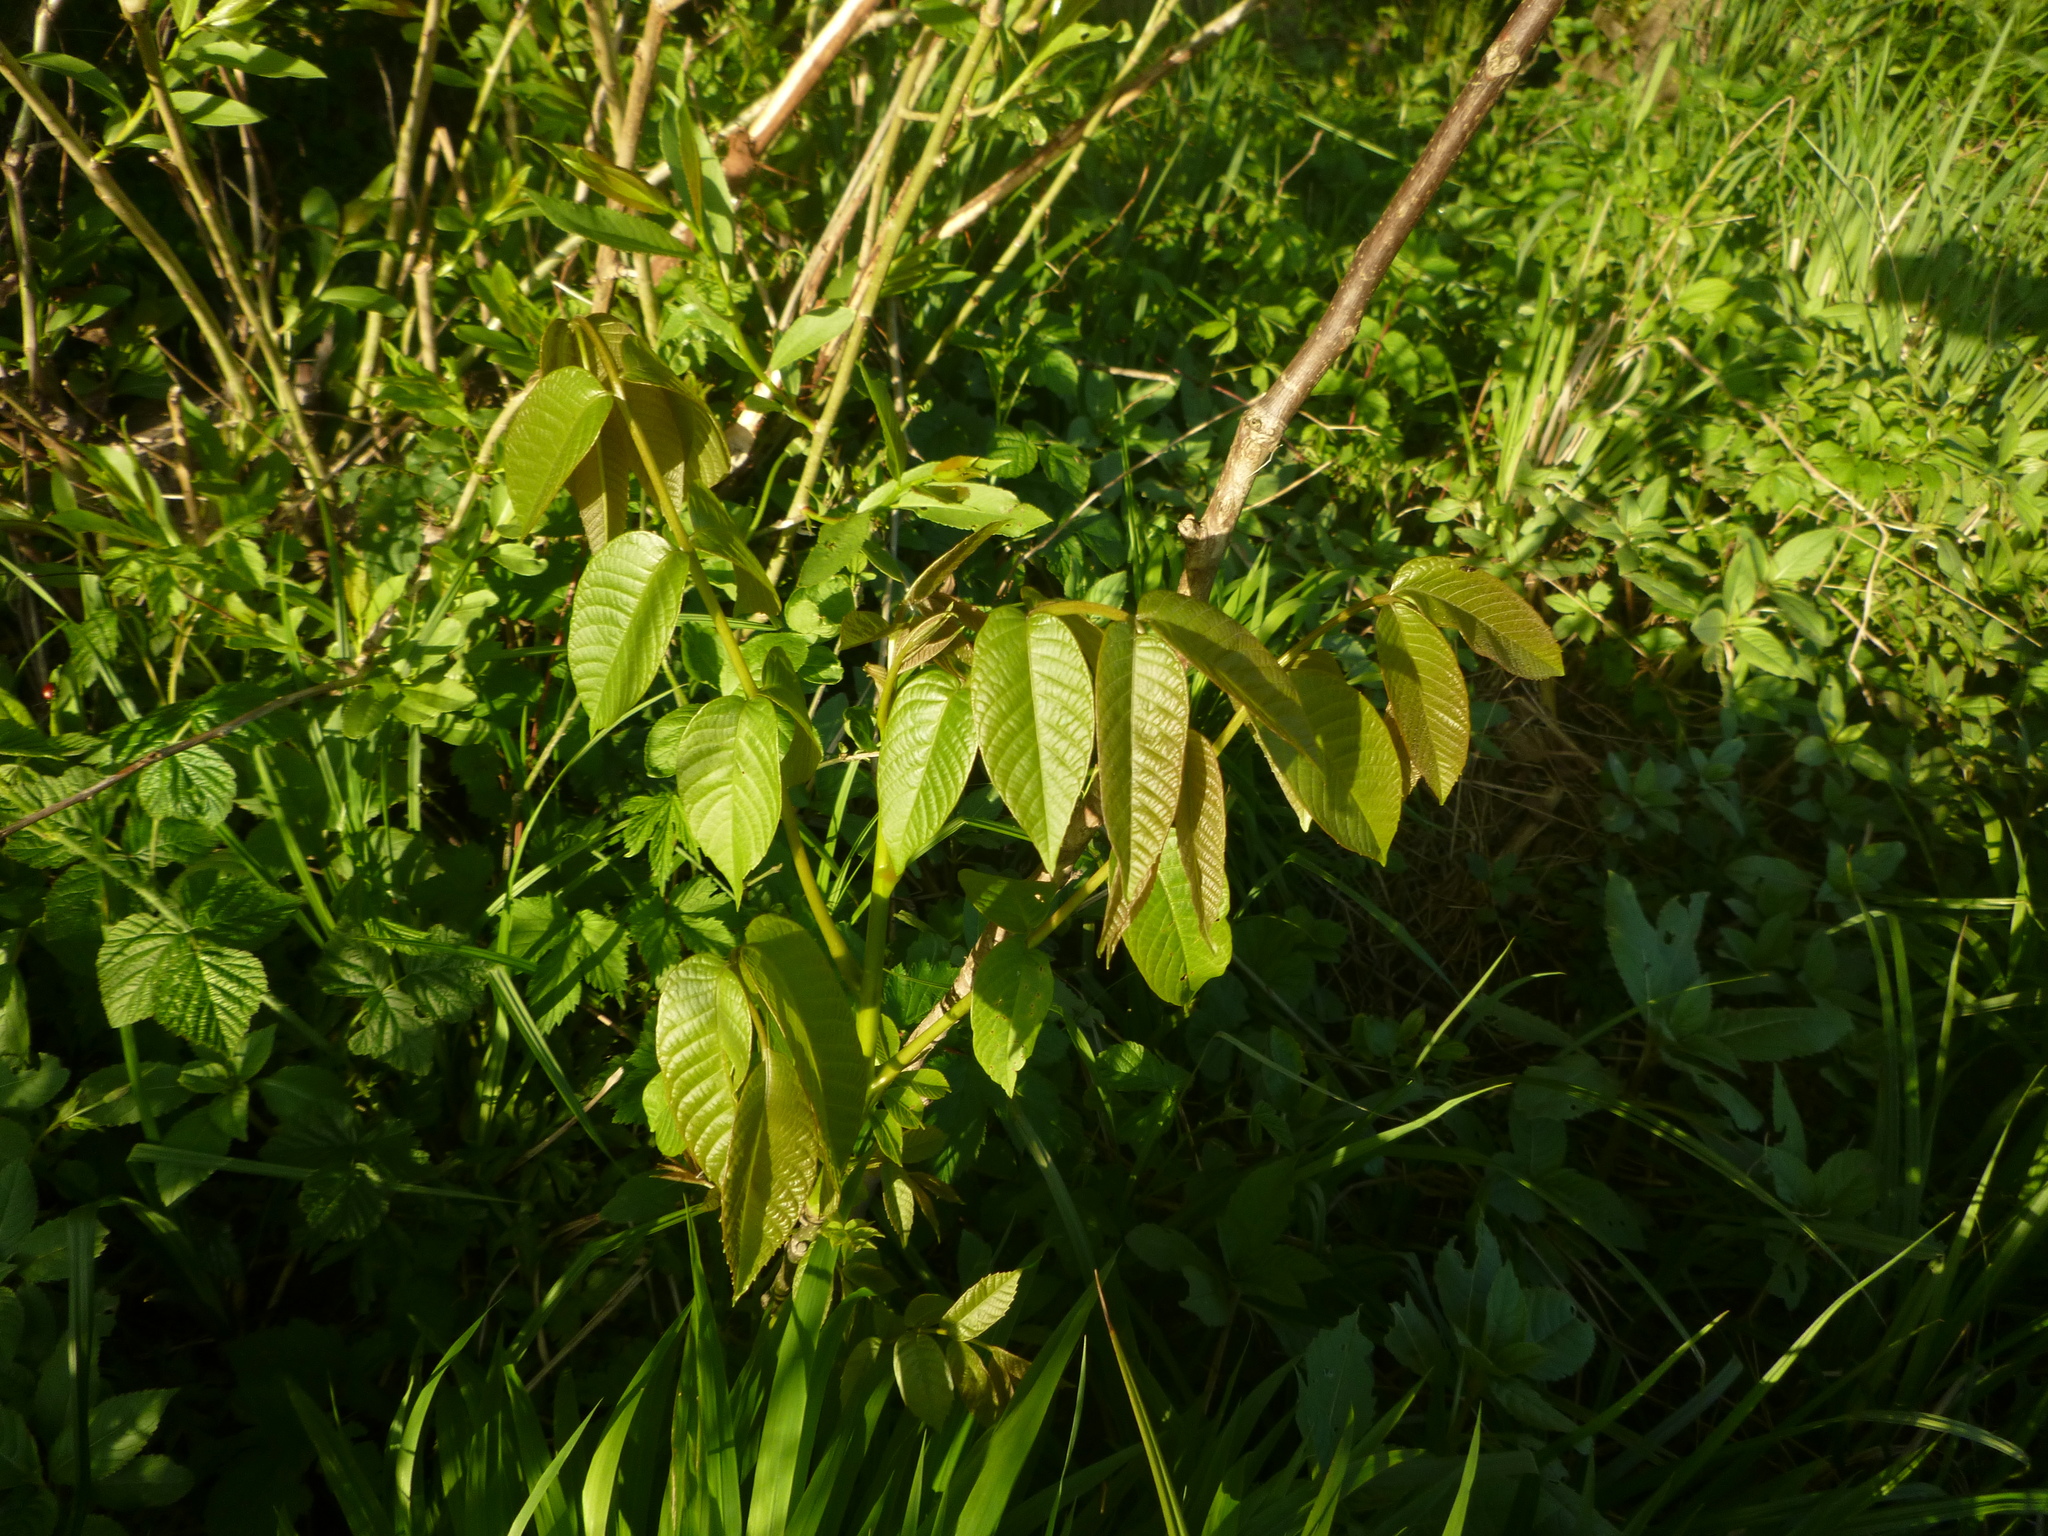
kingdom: Plantae
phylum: Tracheophyta
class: Magnoliopsida
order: Fagales
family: Juglandaceae
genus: Juglans
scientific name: Juglans regia
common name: Walnut
